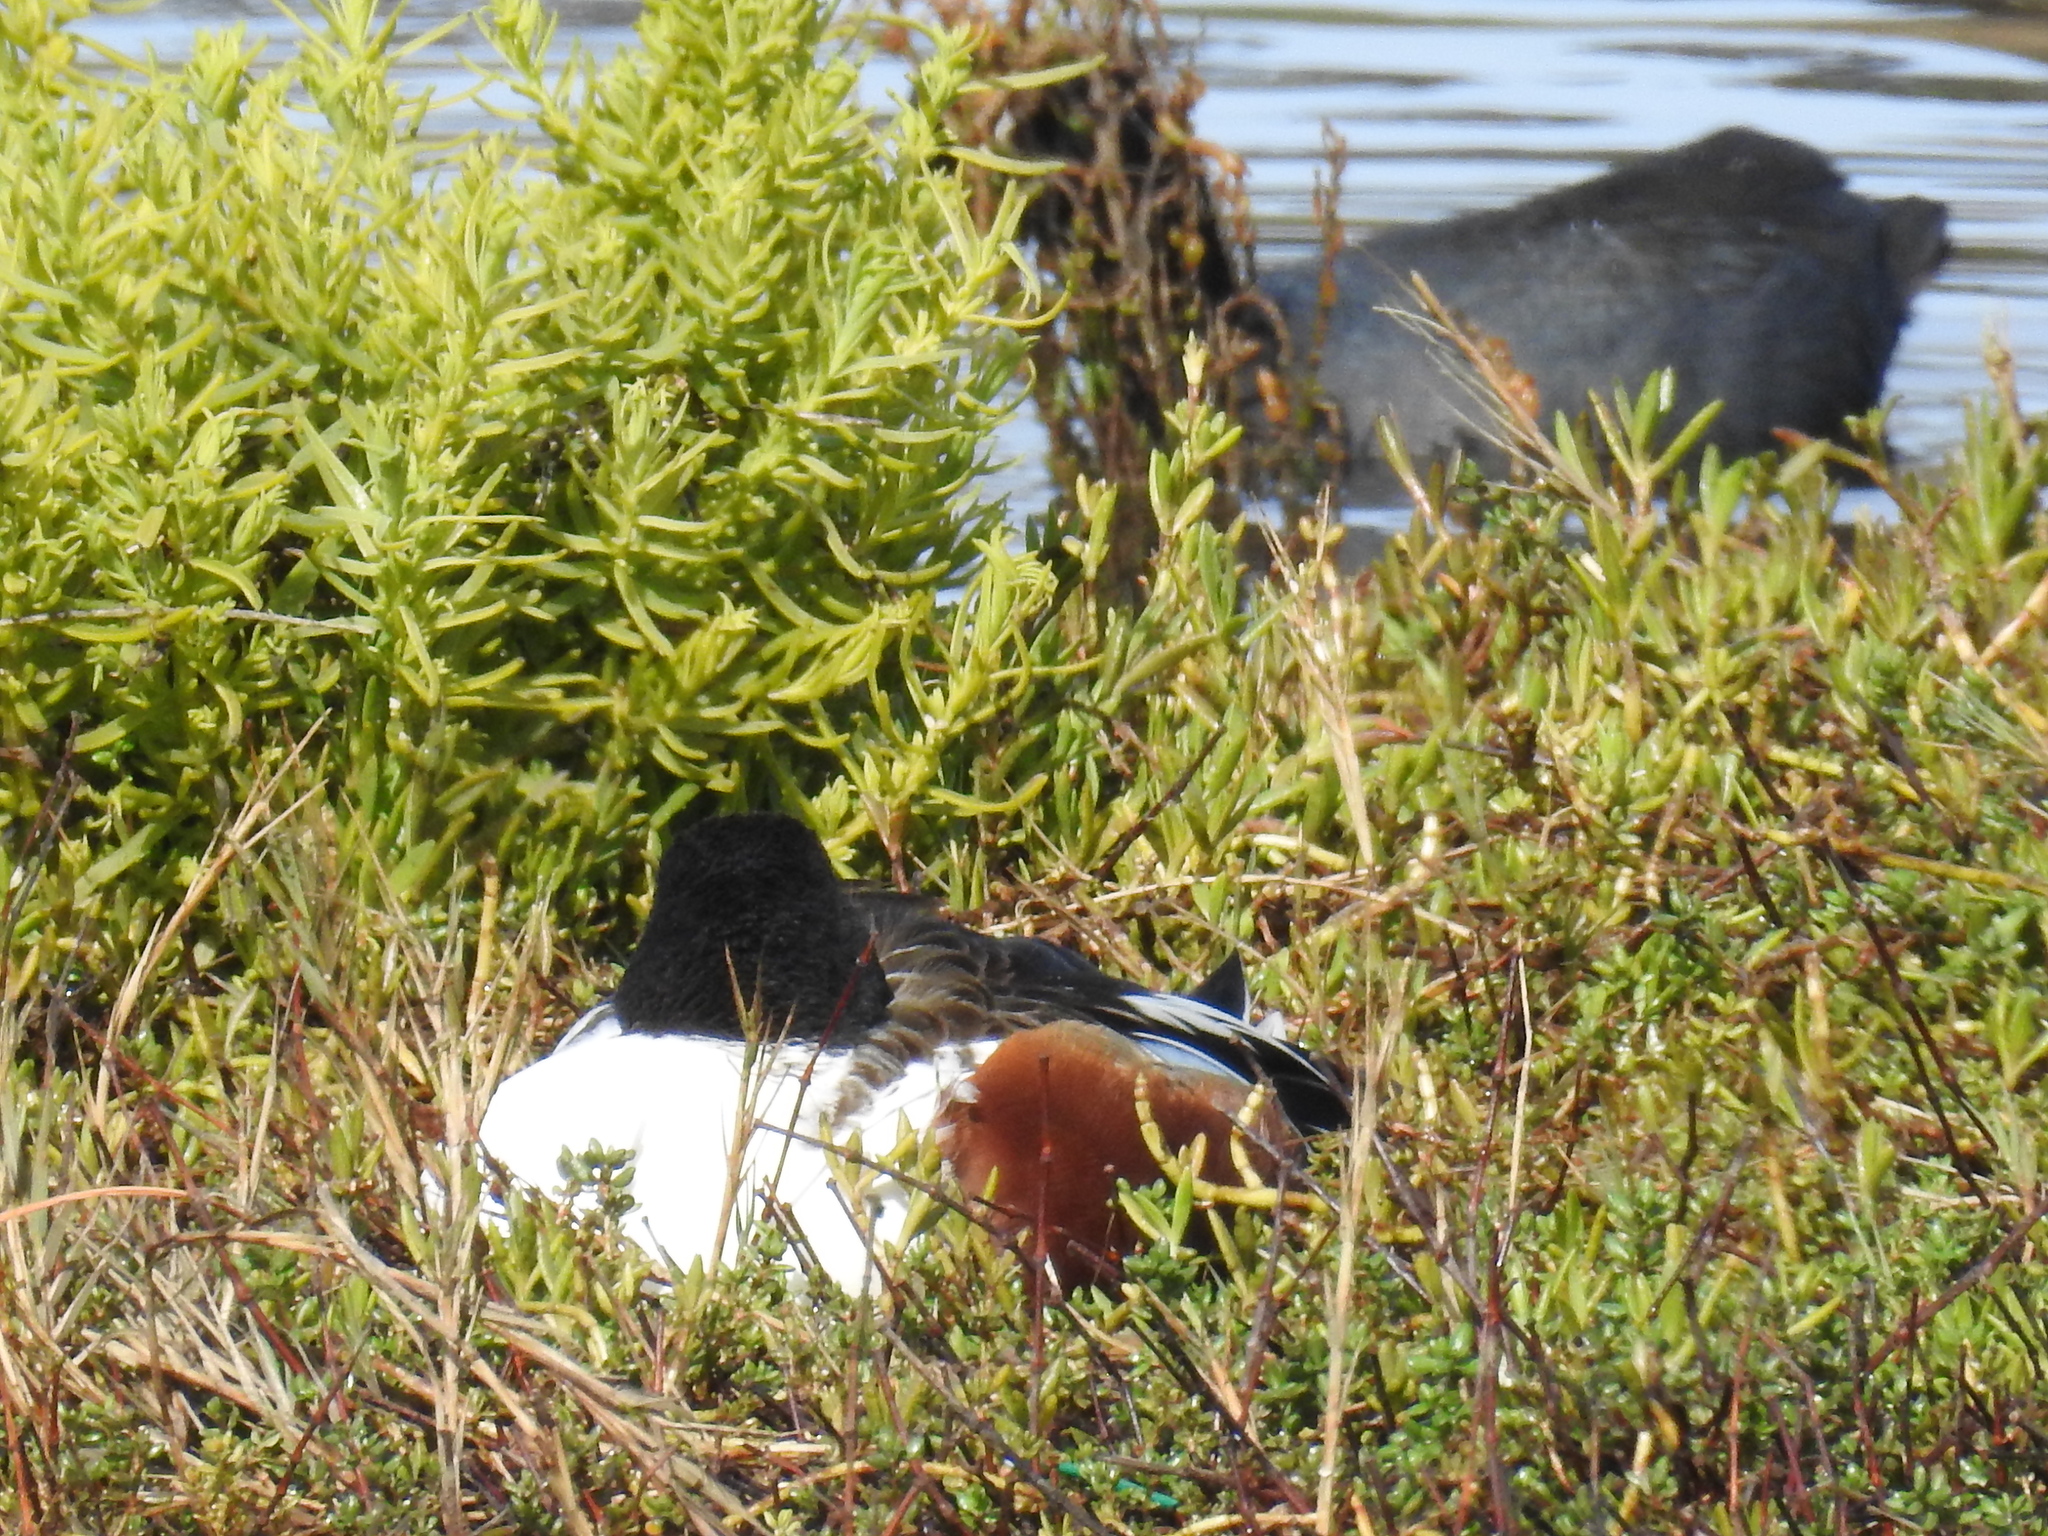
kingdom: Animalia
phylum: Chordata
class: Aves
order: Anseriformes
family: Anatidae
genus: Spatula
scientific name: Spatula clypeata
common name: Northern shoveler
